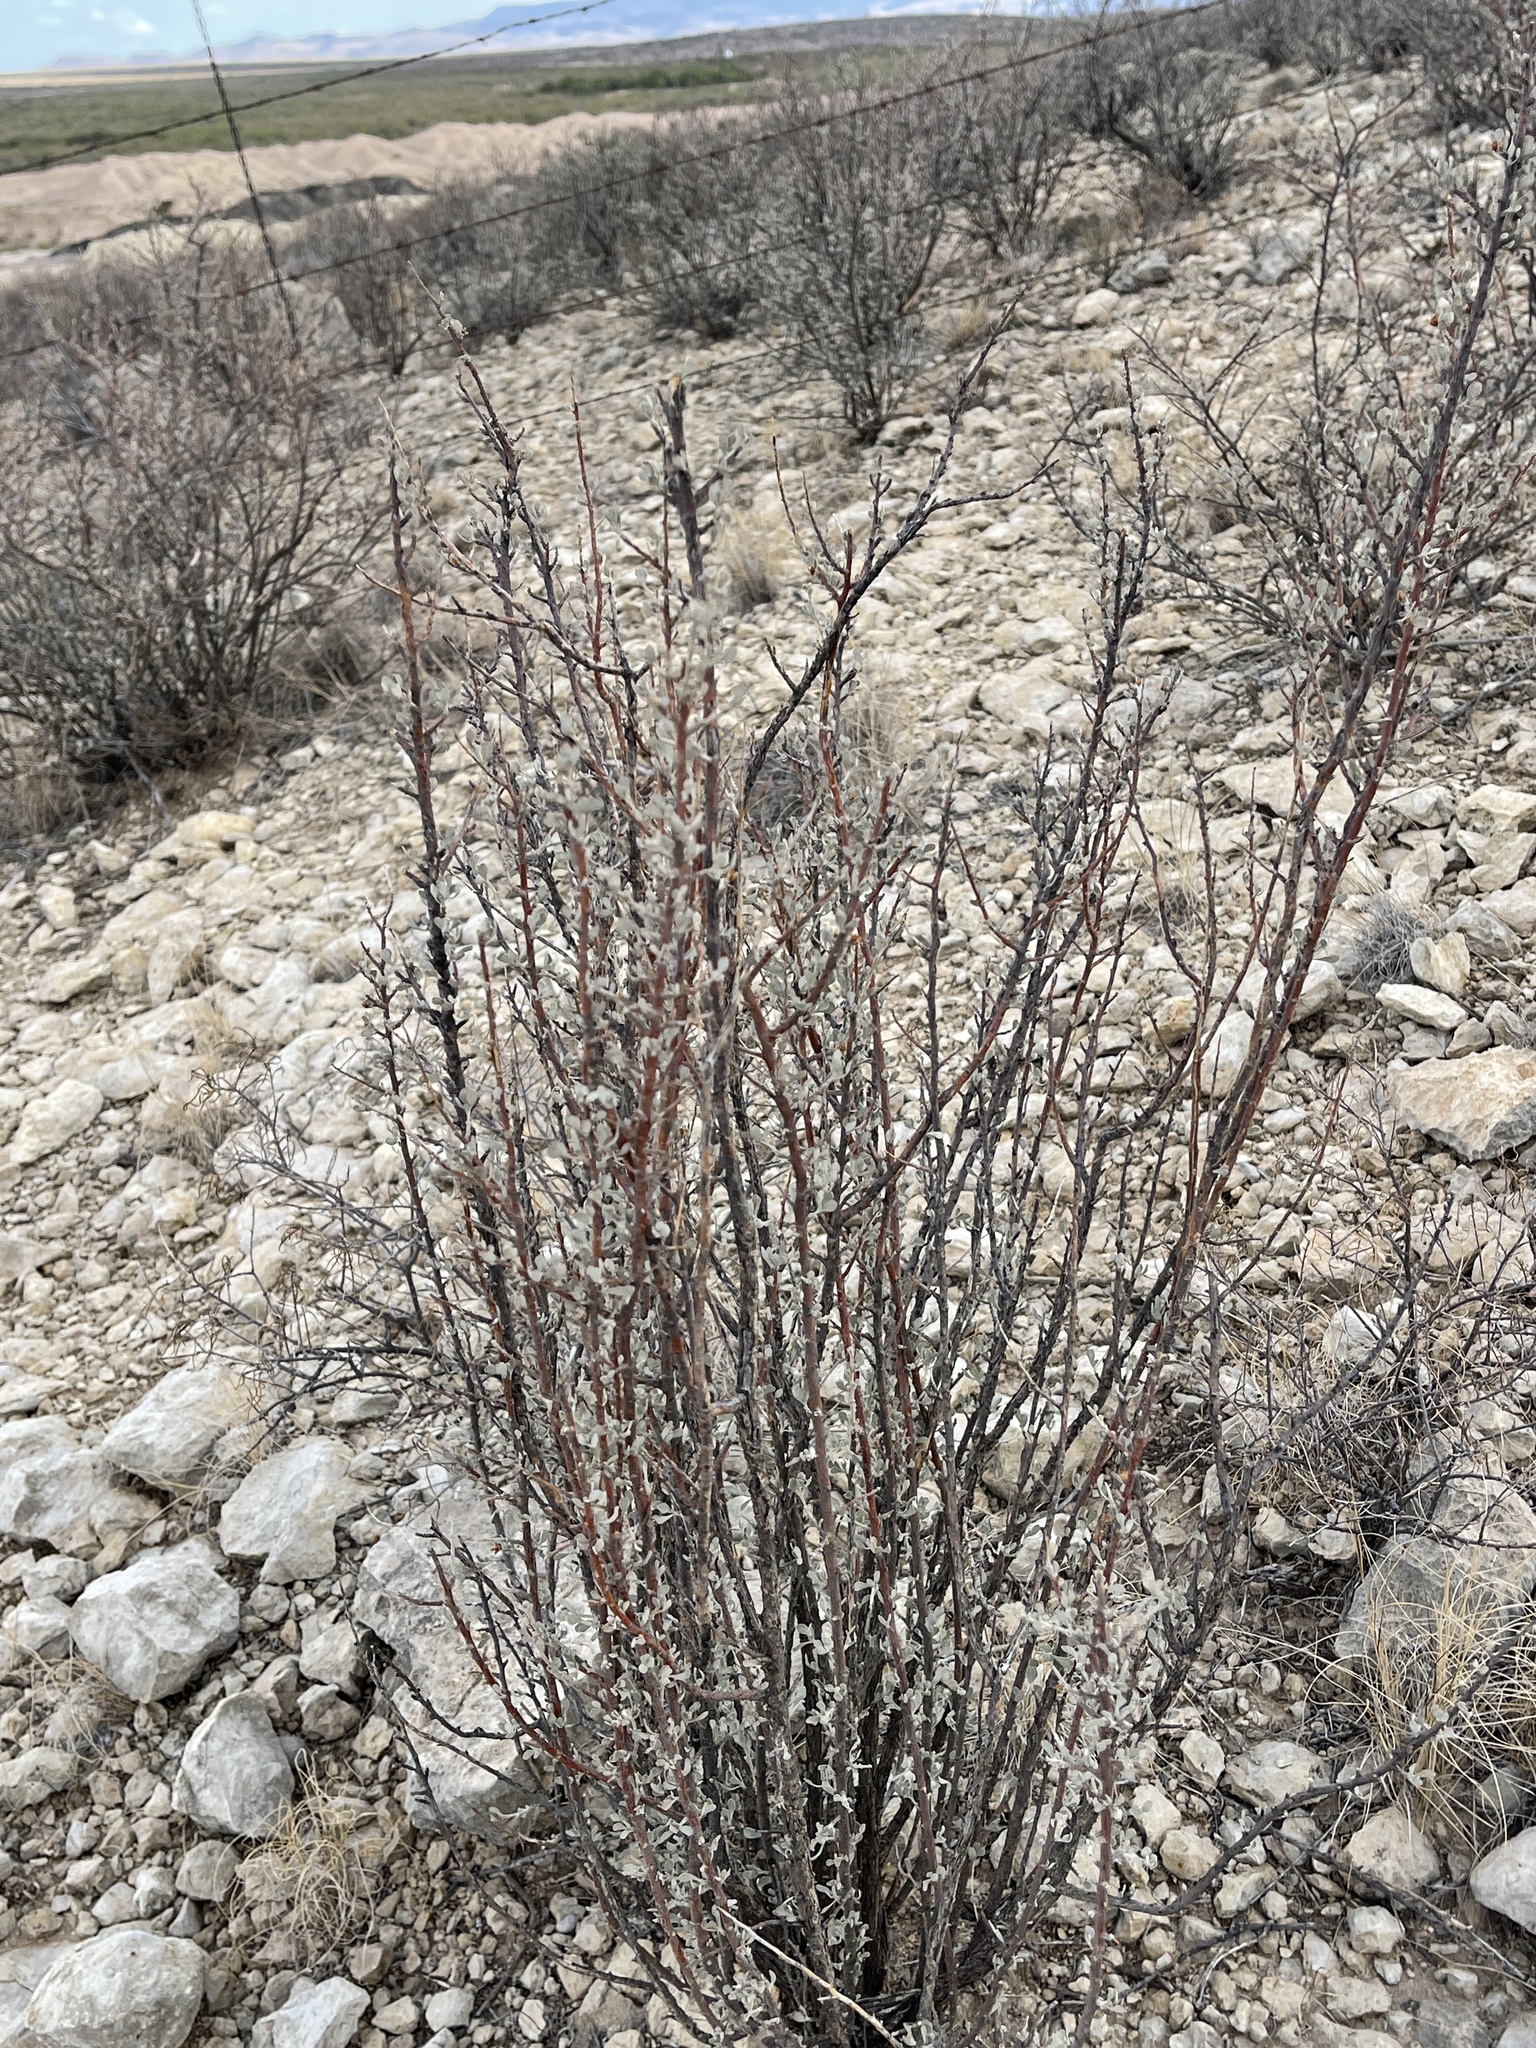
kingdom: Plantae
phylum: Tracheophyta
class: Magnoliopsida
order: Lamiales
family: Scrophulariaceae
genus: Leucophyllum
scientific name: Leucophyllum minus
